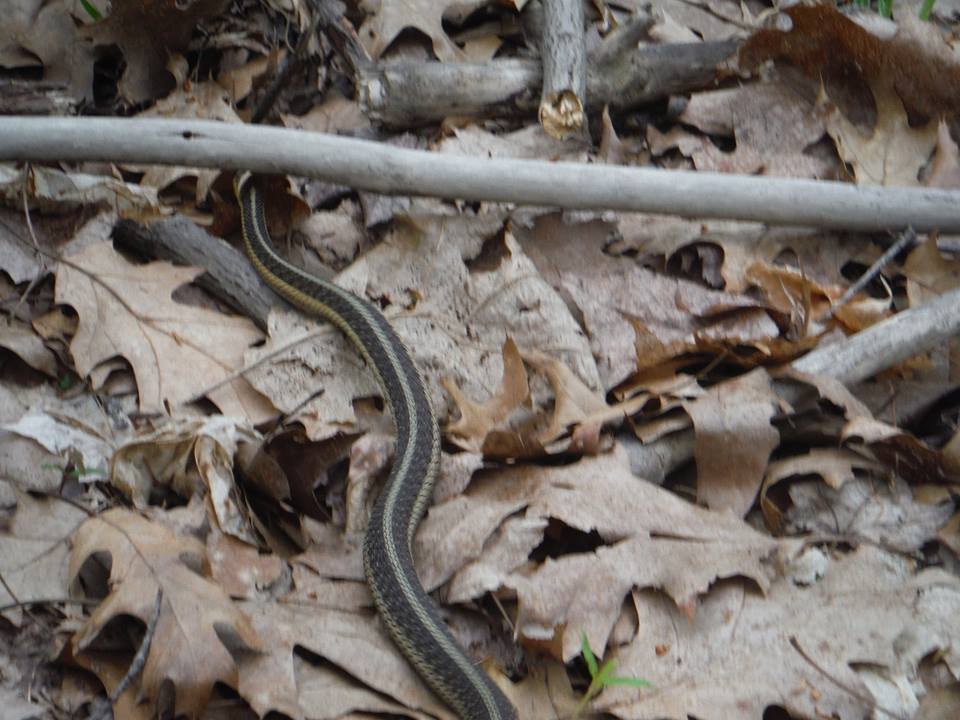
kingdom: Animalia
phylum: Chordata
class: Squamata
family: Colubridae
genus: Thamnophis
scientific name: Thamnophis sirtalis
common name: Common garter snake
